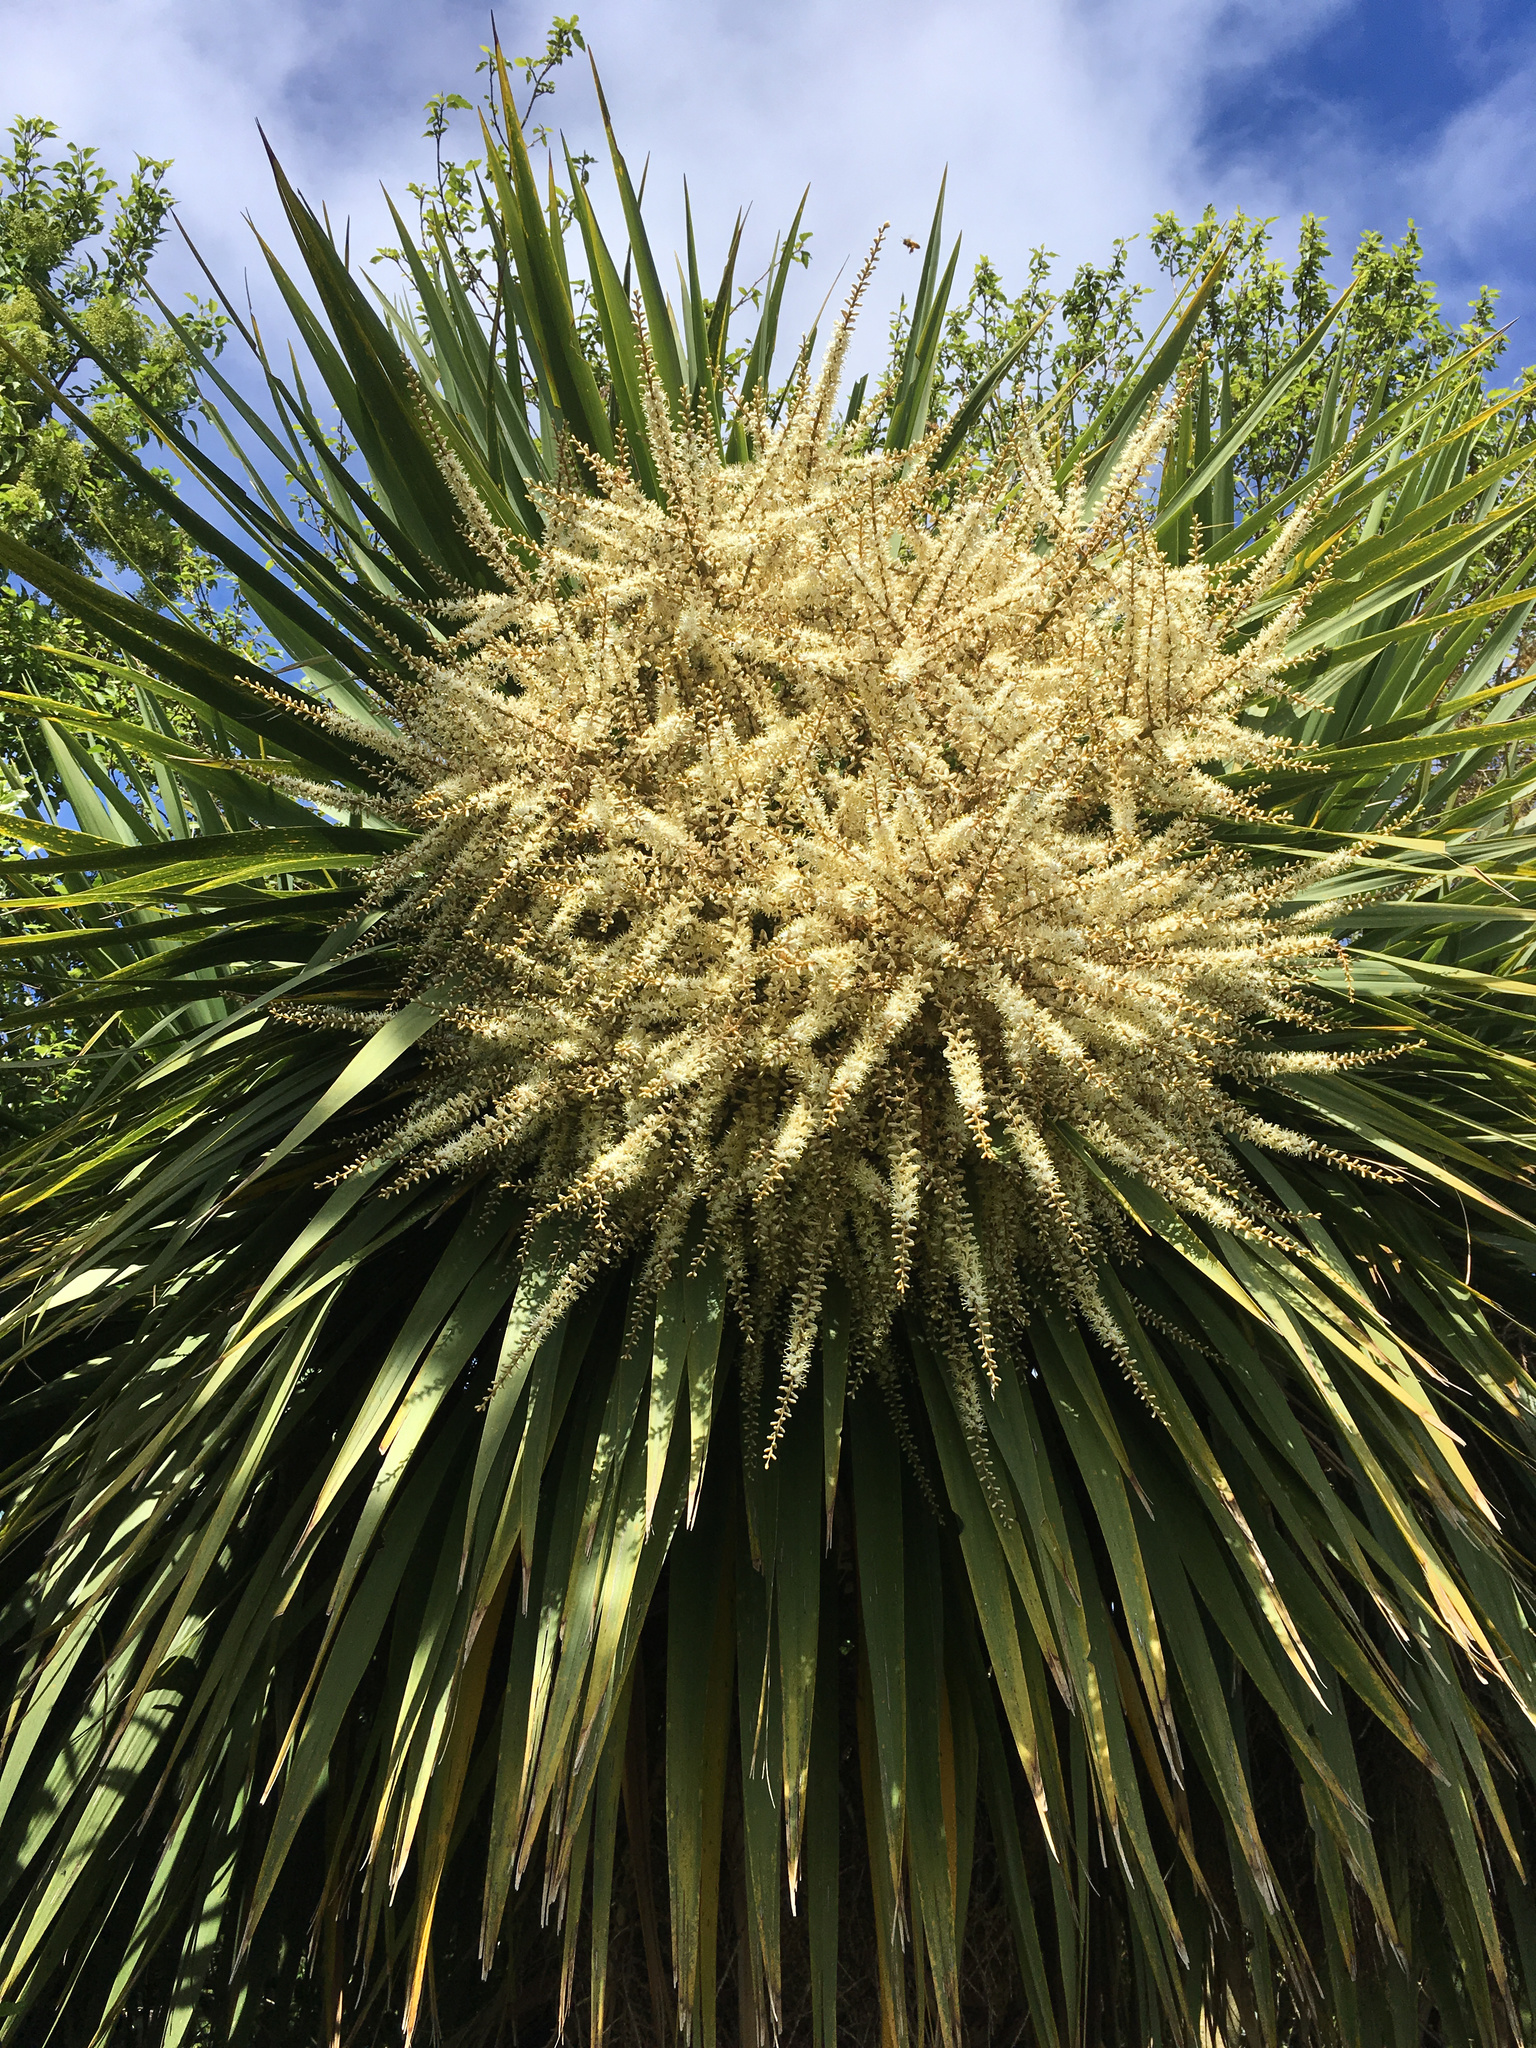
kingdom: Plantae
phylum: Tracheophyta
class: Liliopsida
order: Asparagales
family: Asparagaceae
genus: Cordyline
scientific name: Cordyline australis
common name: Cabbage-palm
